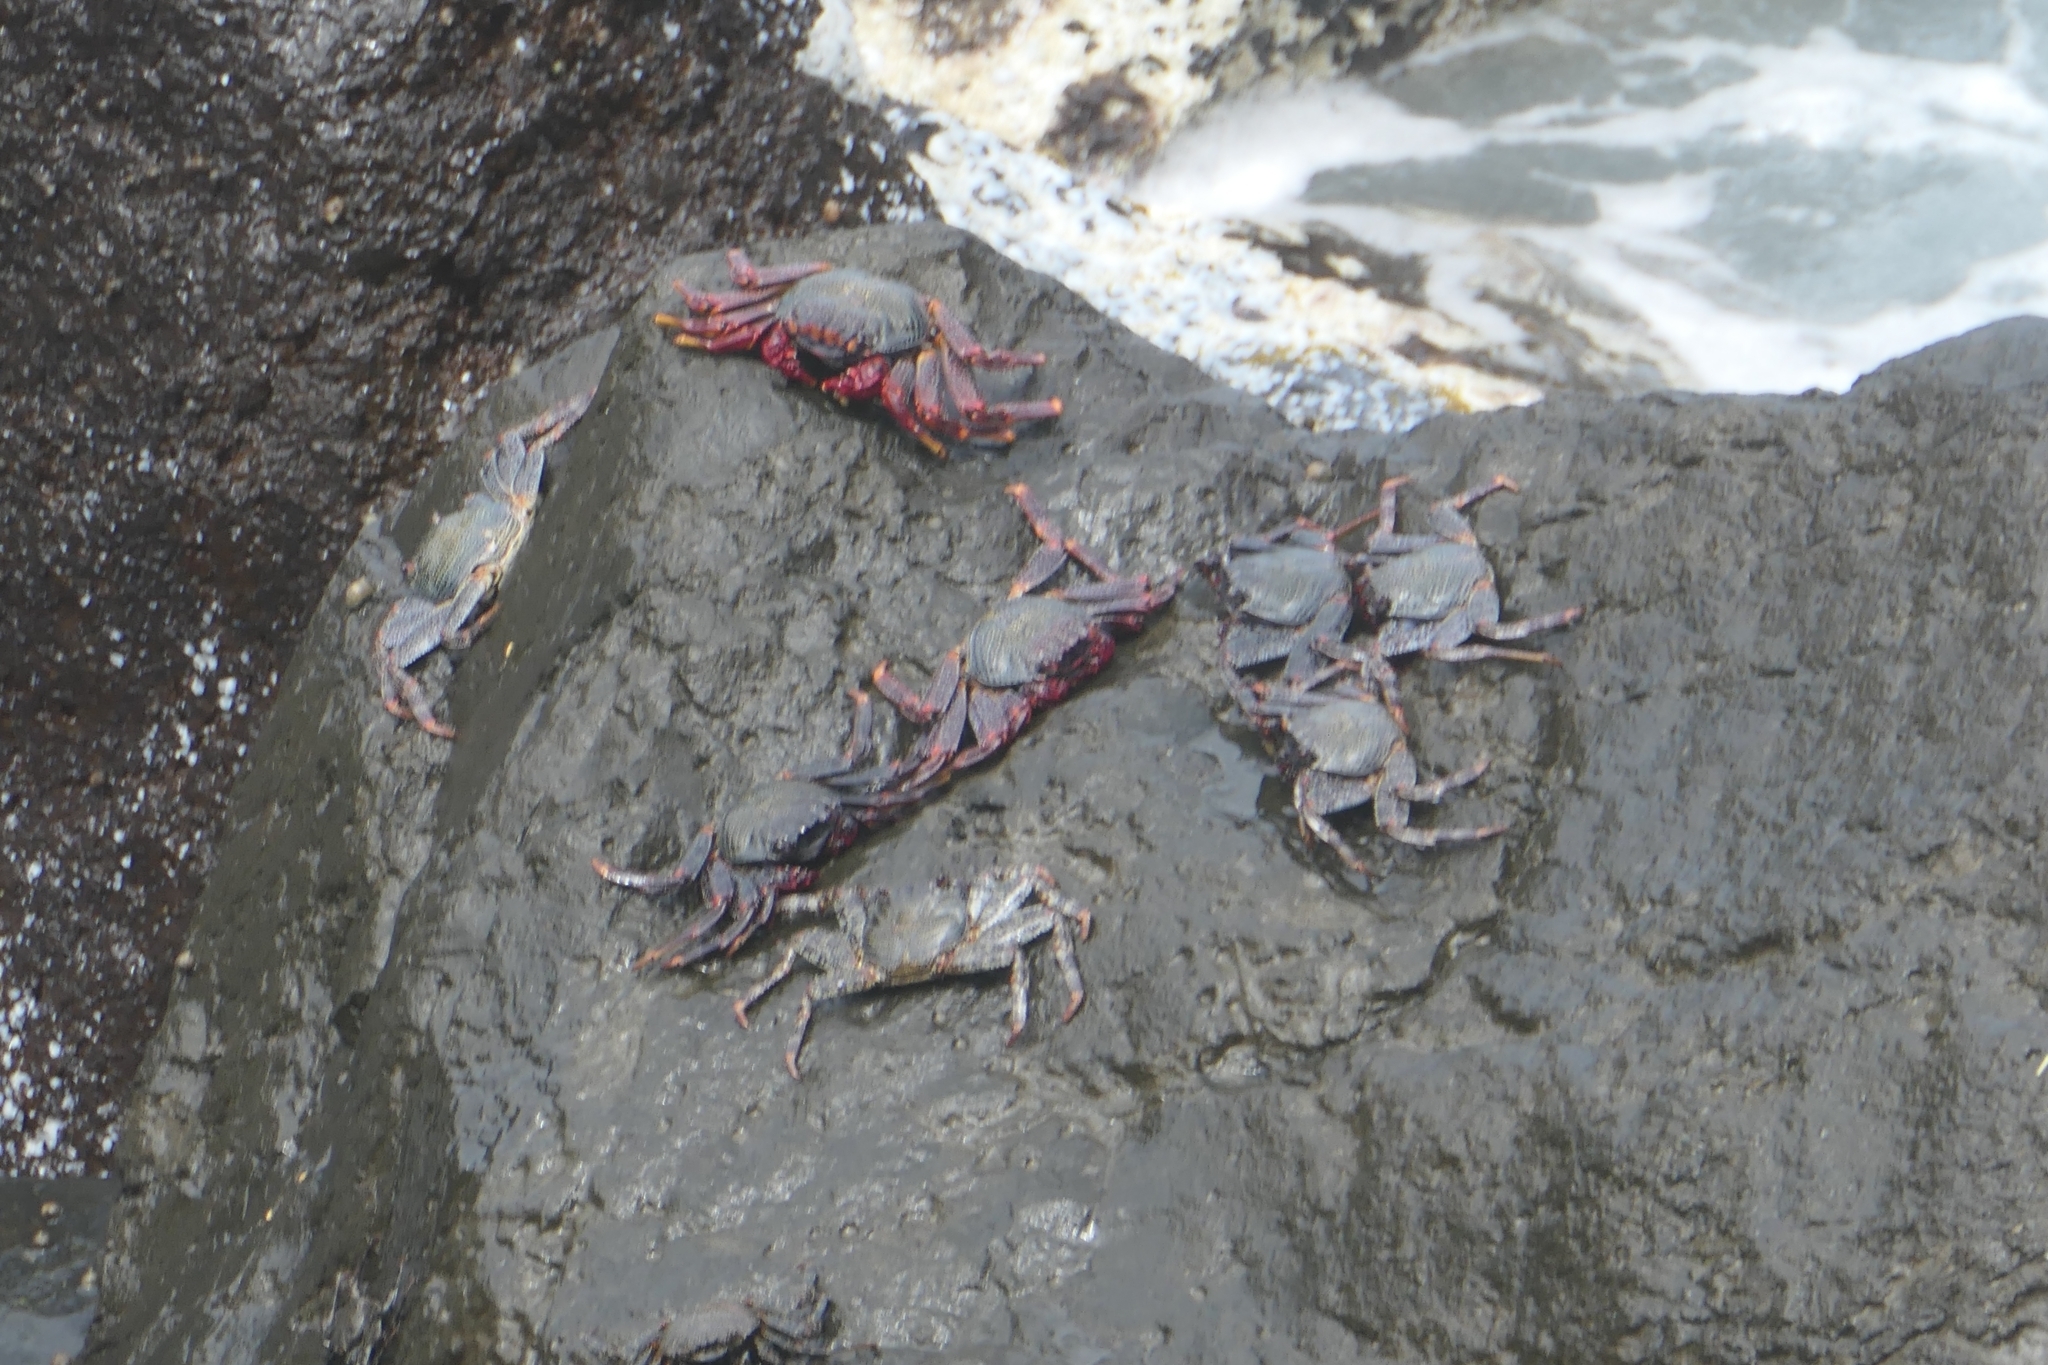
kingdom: Animalia
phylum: Arthropoda
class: Malacostraca
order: Decapoda
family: Grapsidae
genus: Grapsus
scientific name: Grapsus adscensionis
